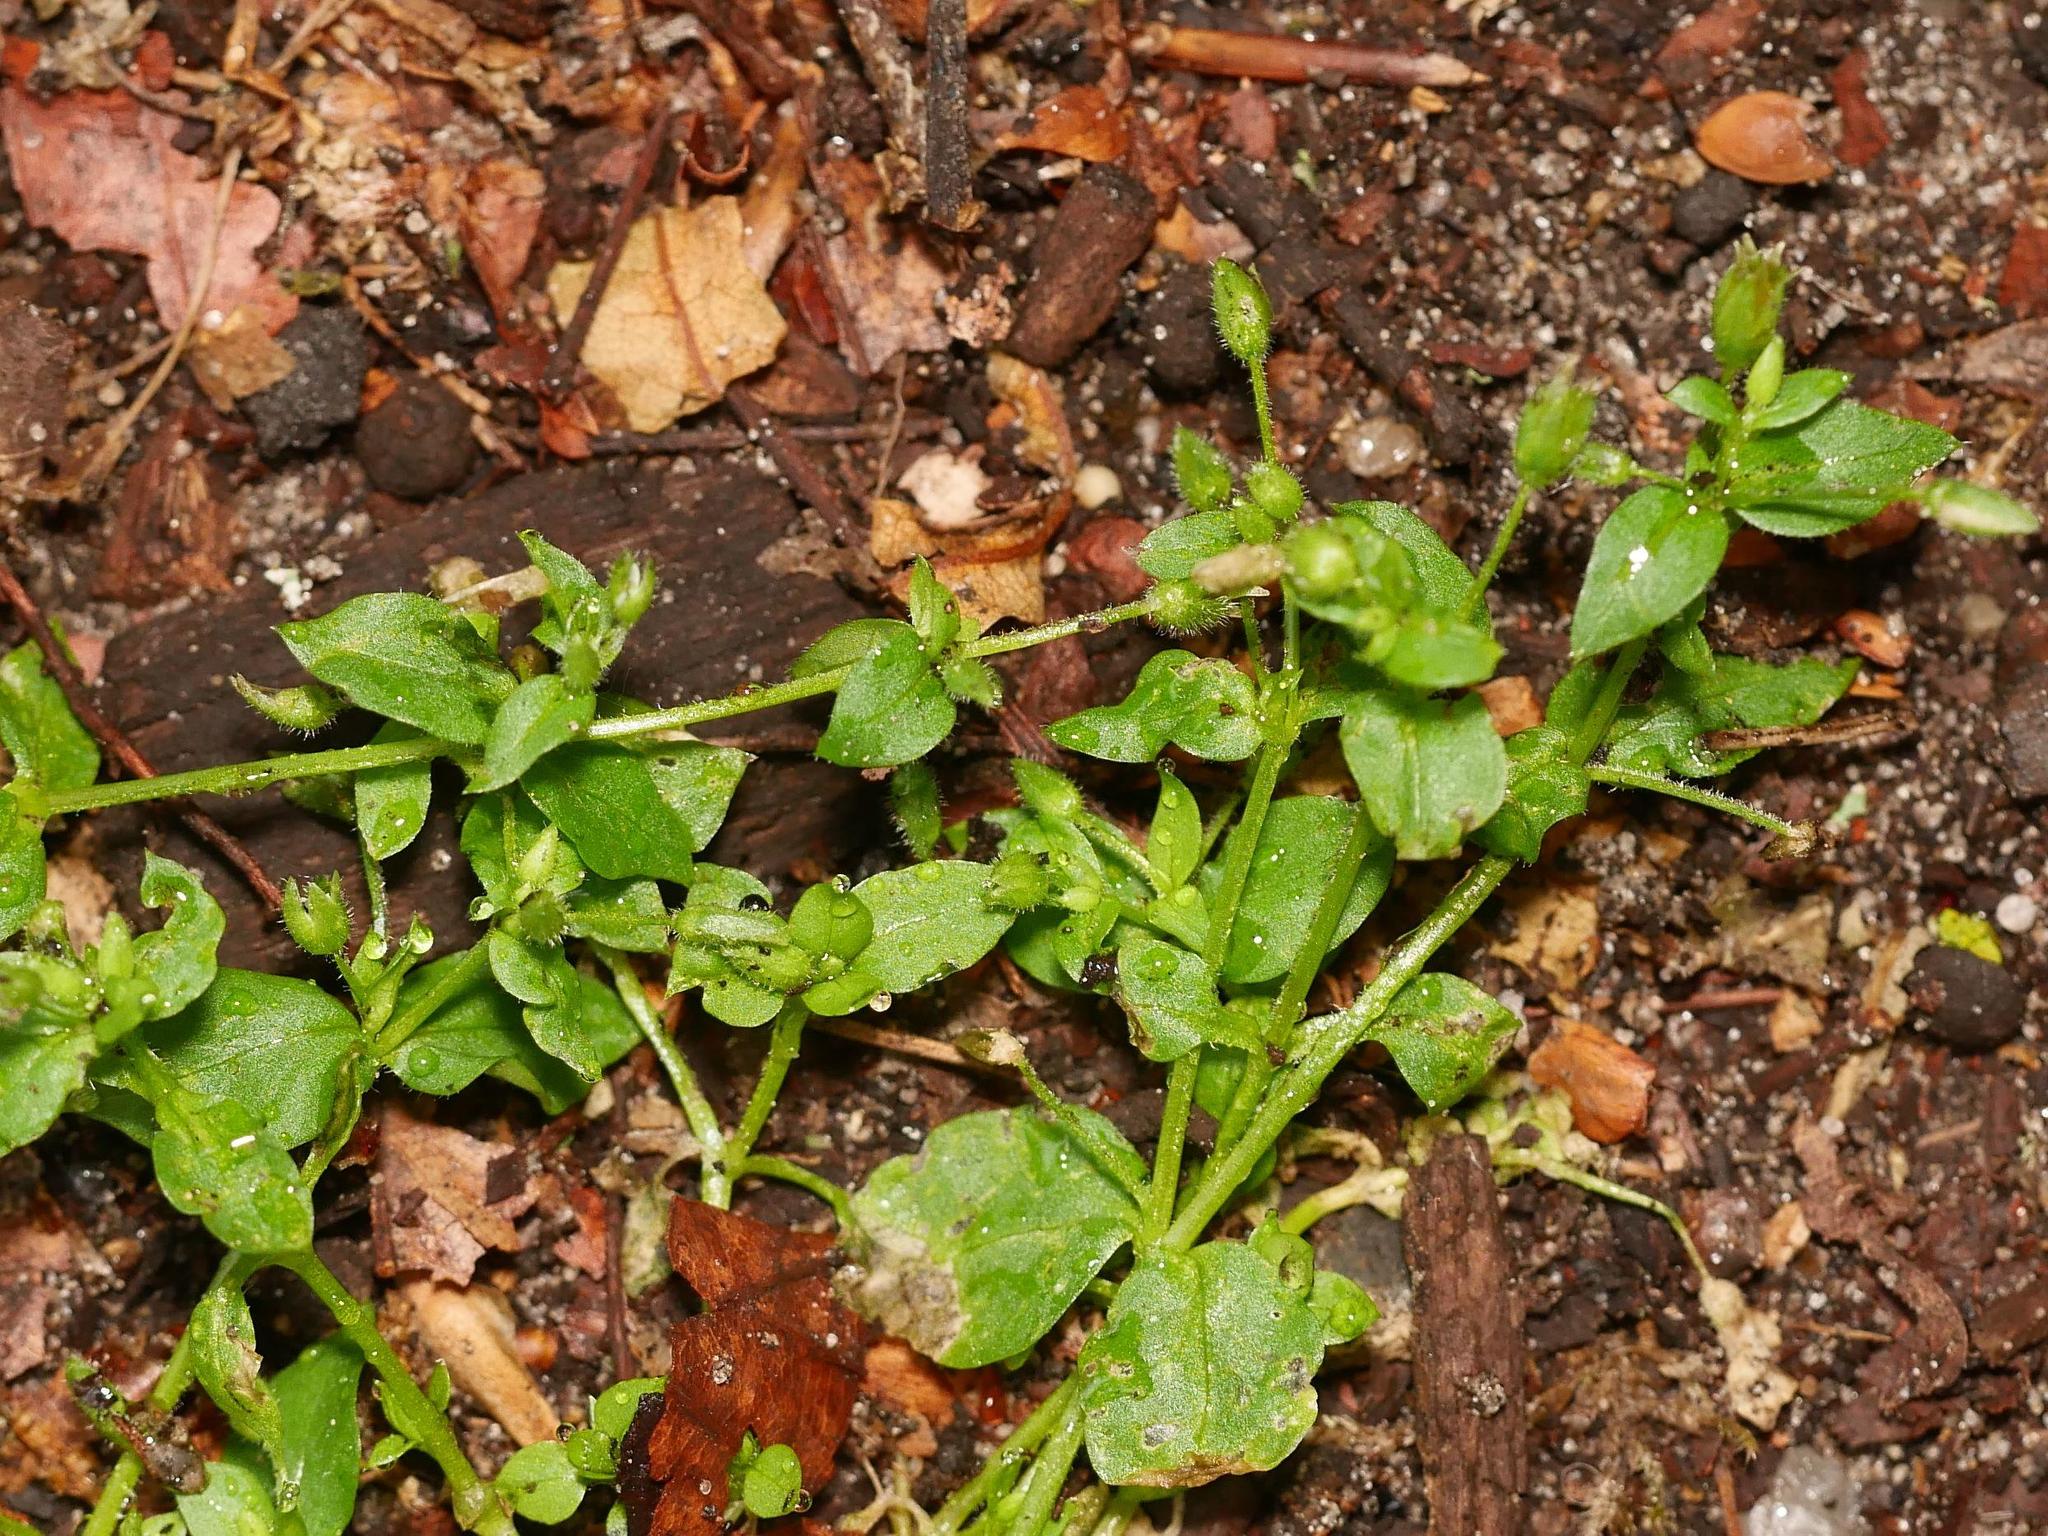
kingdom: Plantae
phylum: Tracheophyta
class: Magnoliopsida
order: Caryophyllales
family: Caryophyllaceae
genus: Stellaria
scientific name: Stellaria media
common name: Common chickweed
